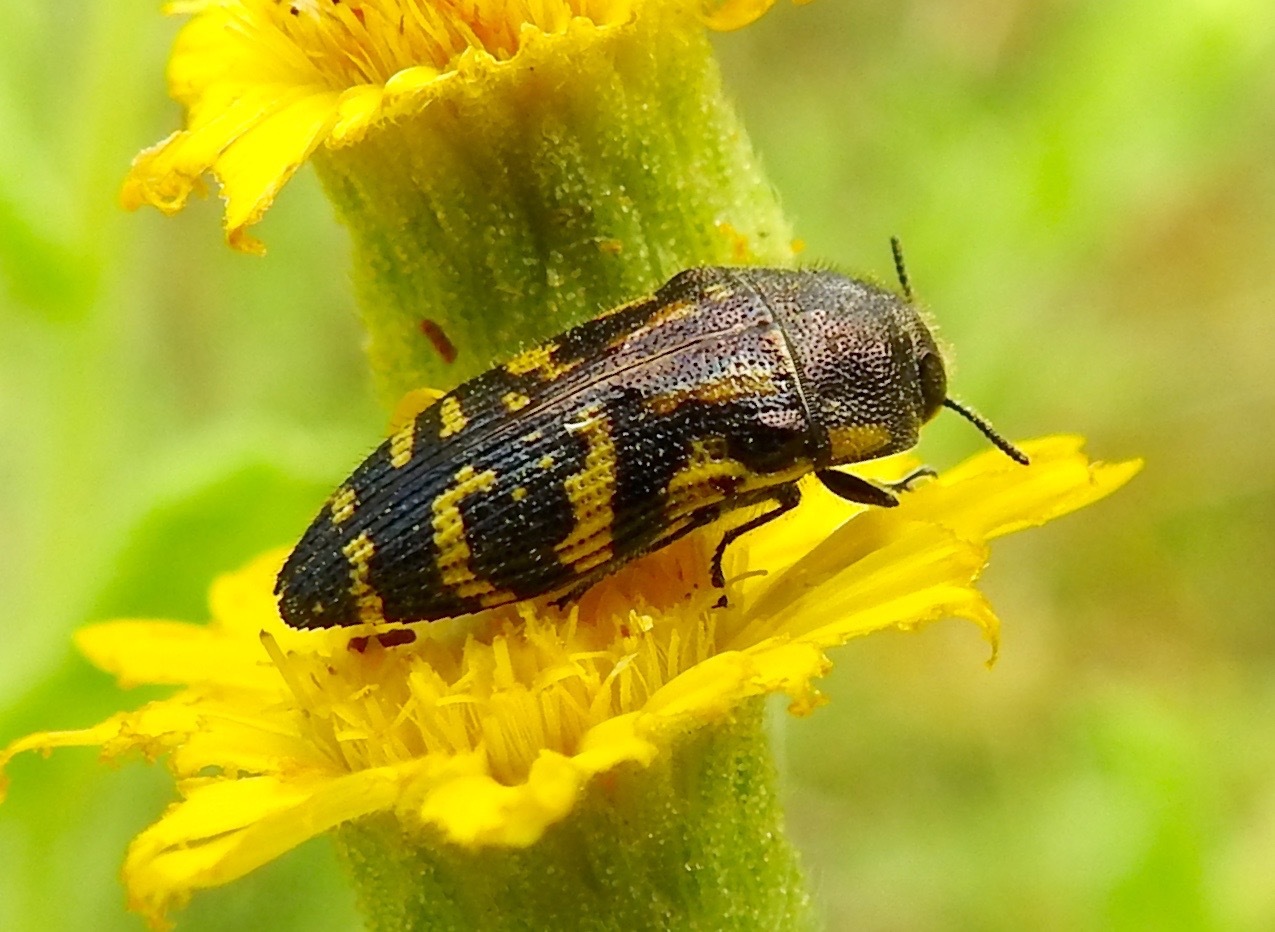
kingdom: Animalia
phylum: Arthropoda
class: Insecta
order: Coleoptera
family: Buprestidae
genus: Acmaeodera
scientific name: Acmaeodera pulchella
